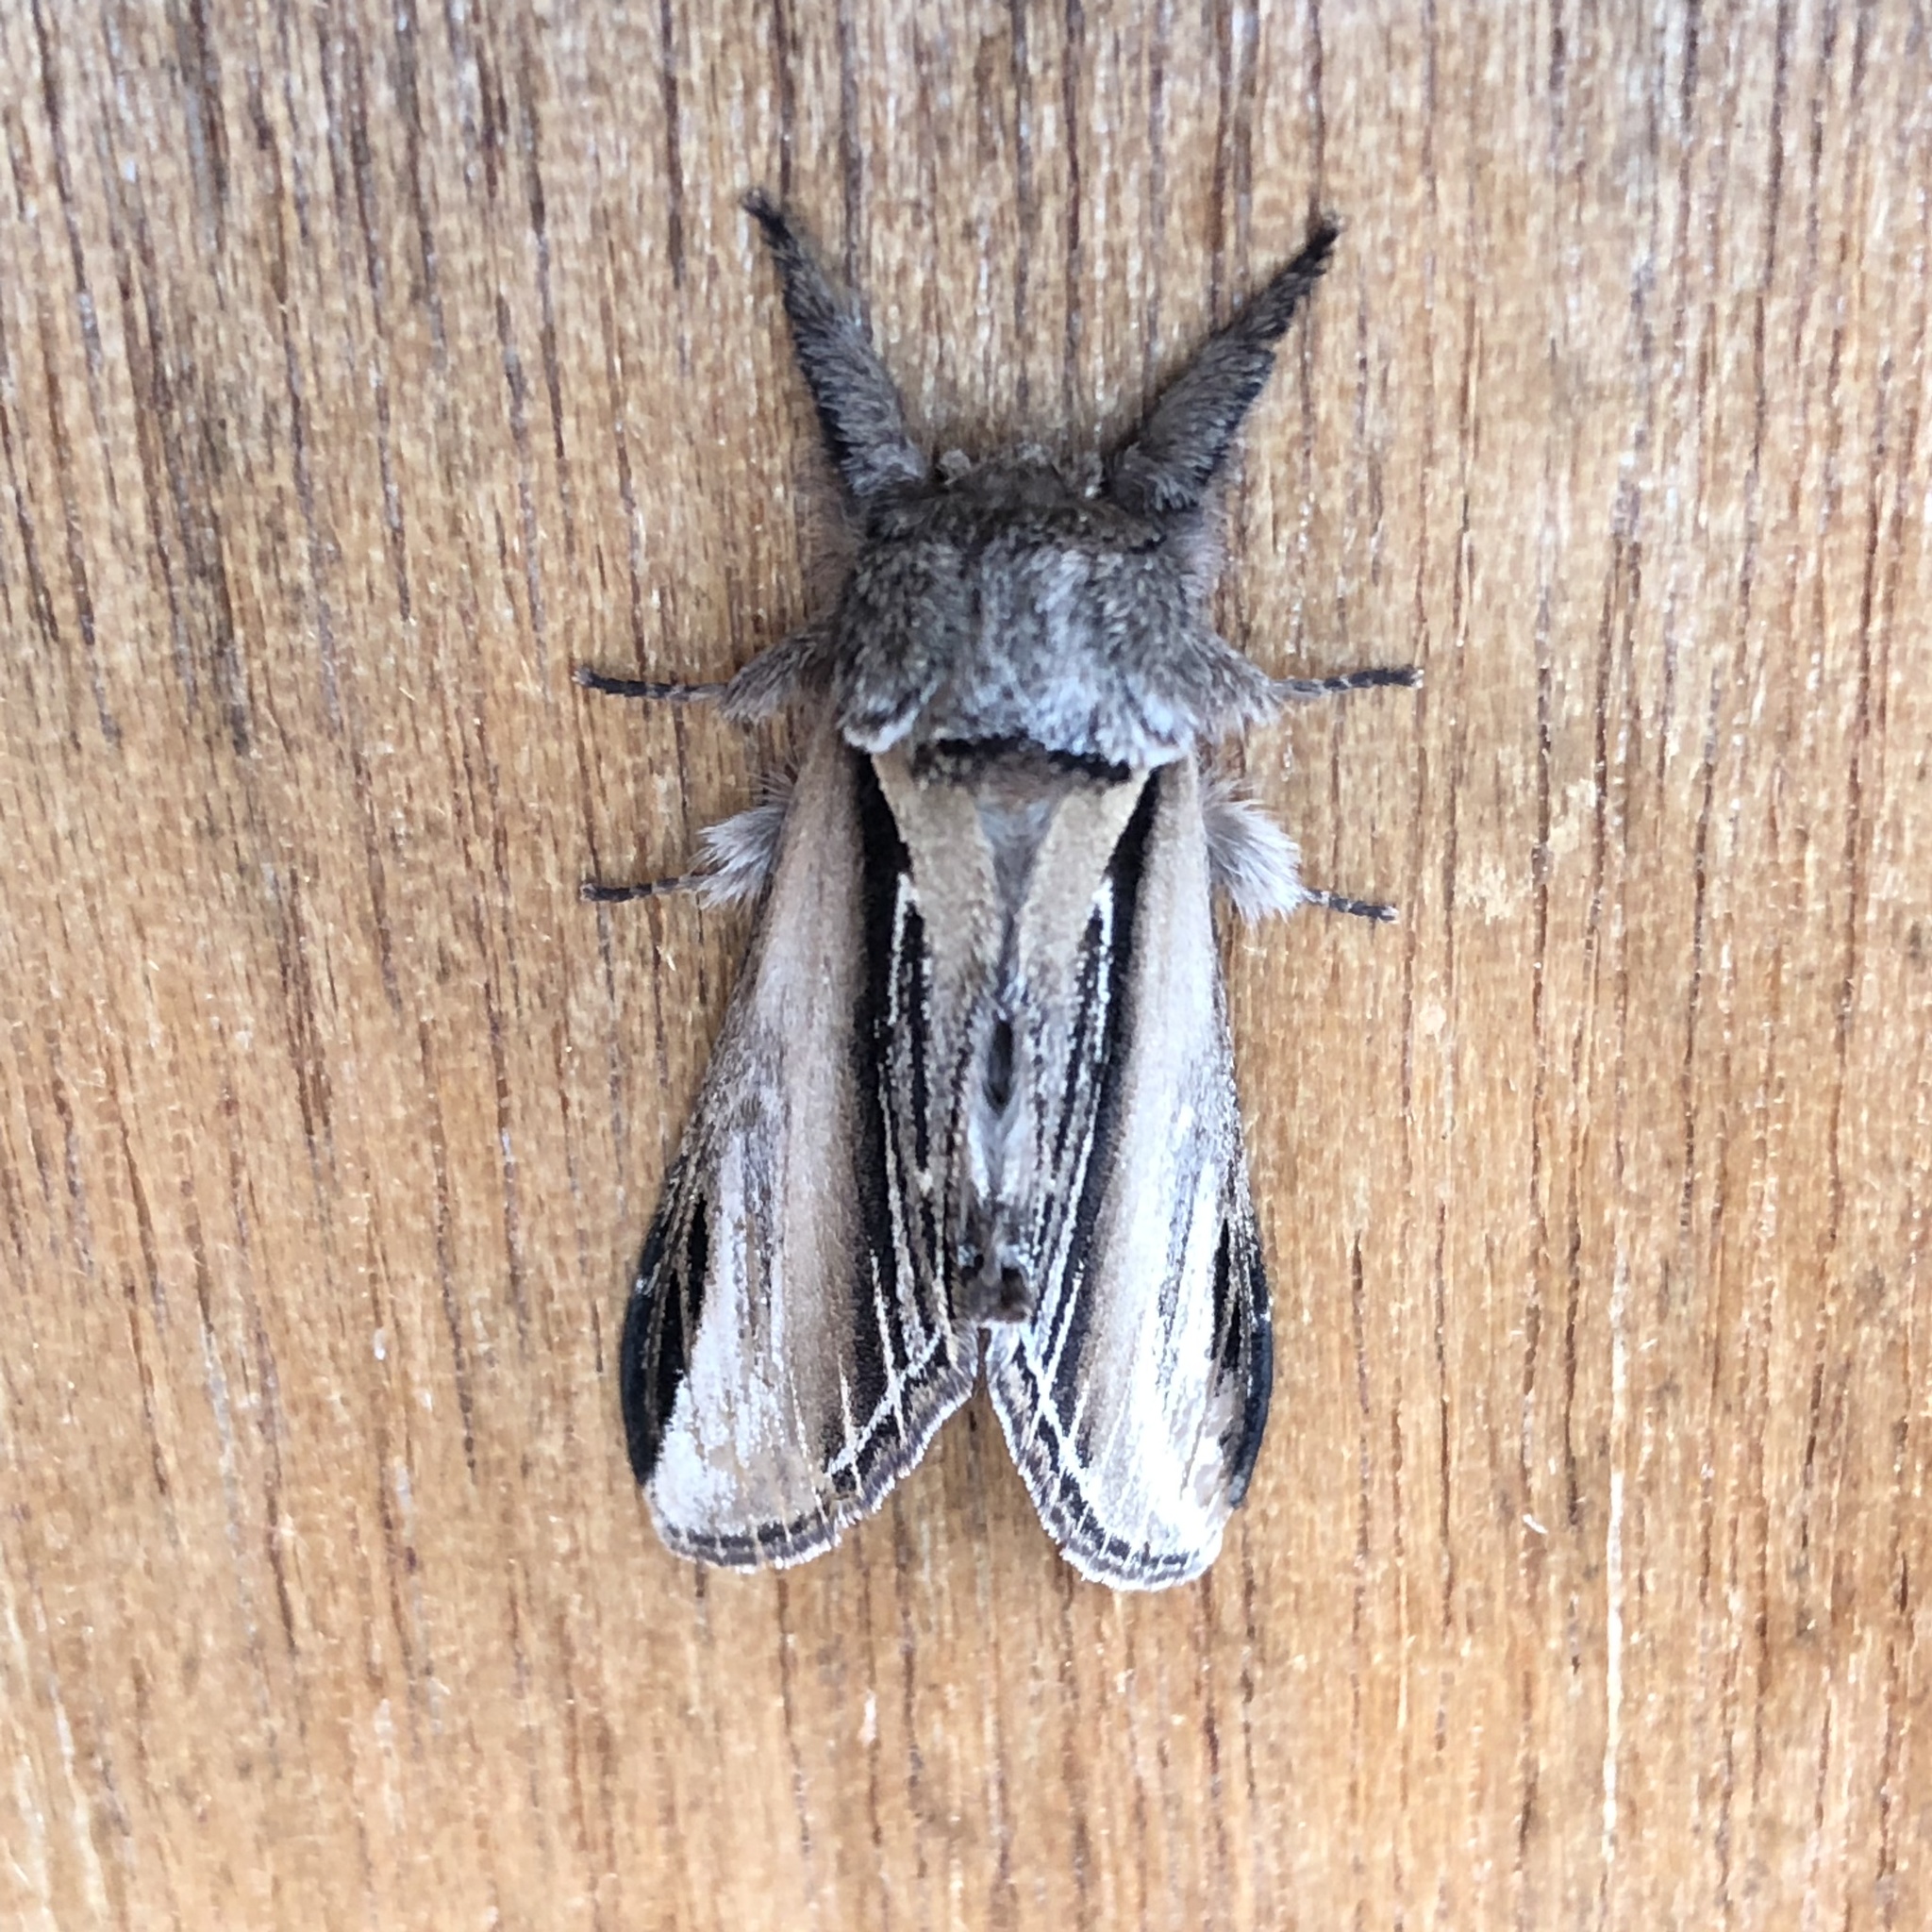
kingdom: Animalia
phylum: Arthropoda
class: Insecta
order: Lepidoptera
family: Notodontidae
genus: Pheosia
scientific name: Pheosia tremula
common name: Swallow prominent
